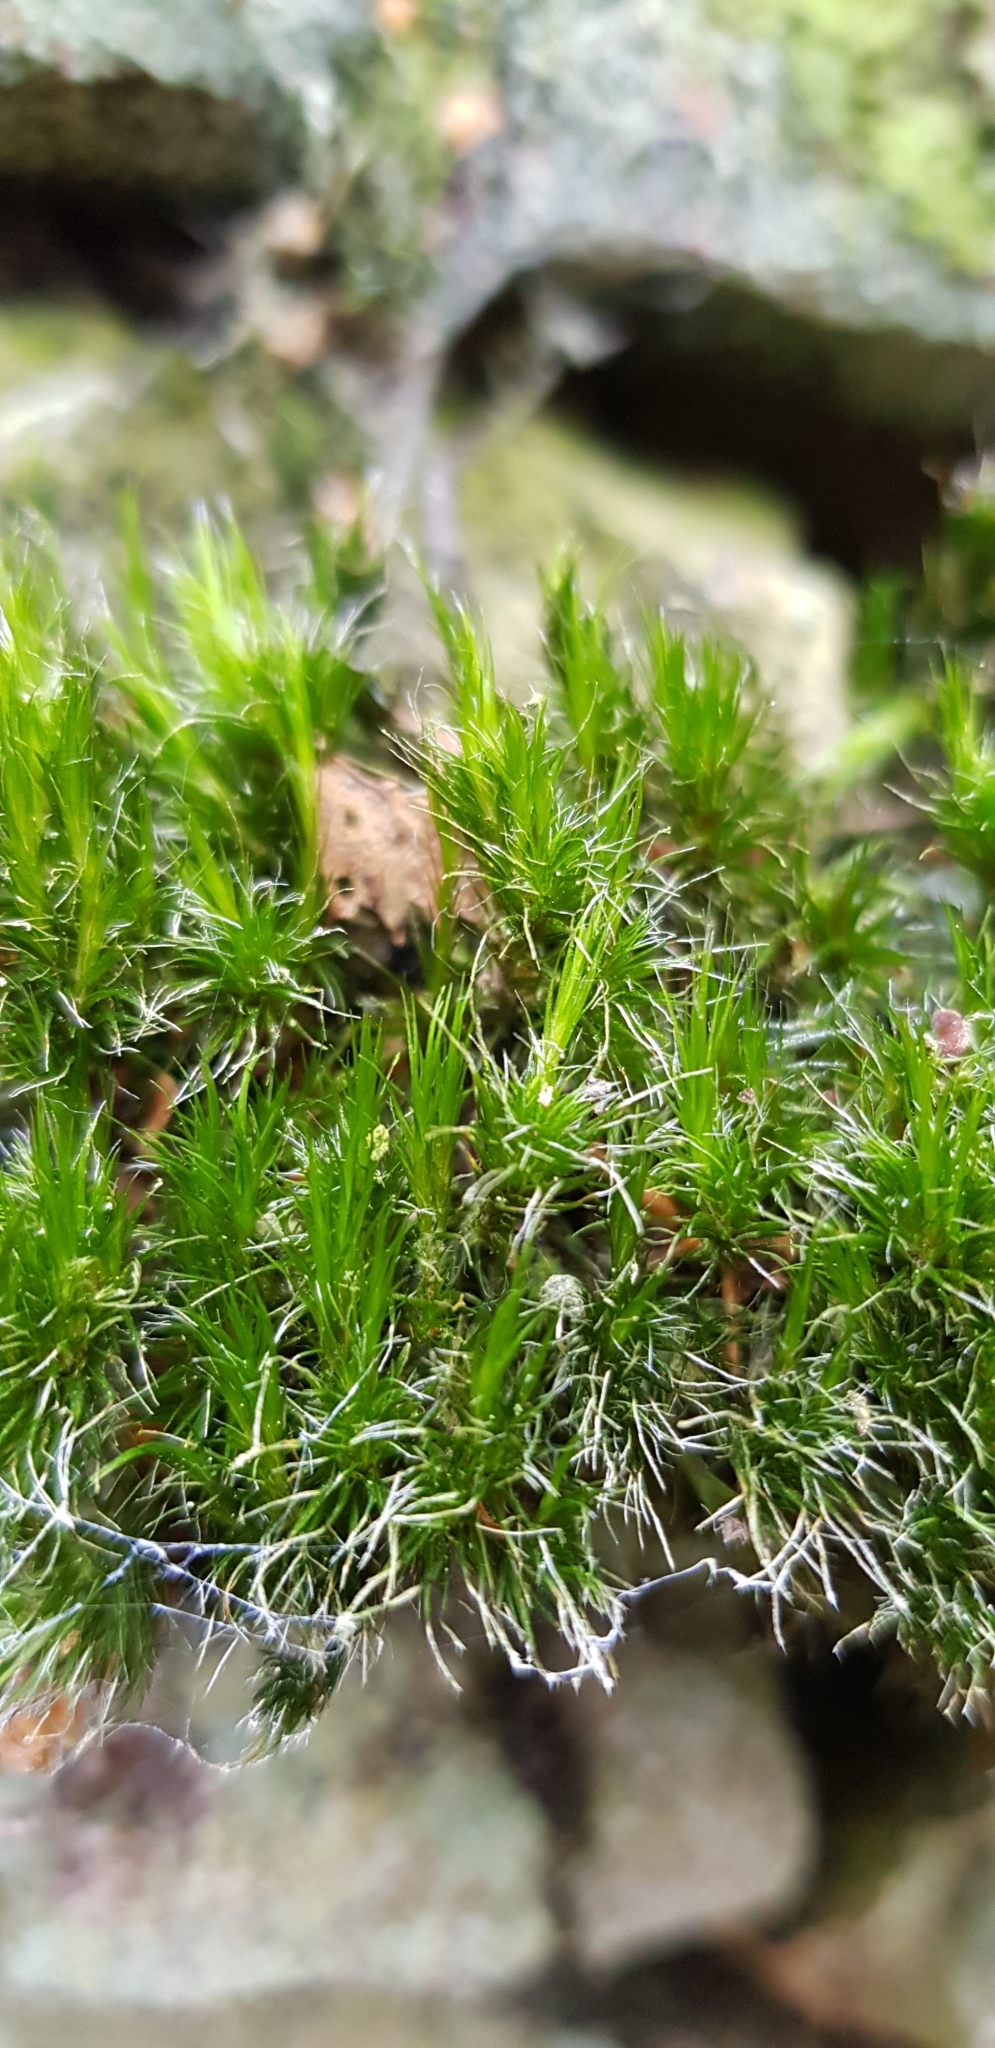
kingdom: Plantae
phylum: Bryophyta
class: Bryopsida
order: Dicranales
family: Leucobryaceae
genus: Campylopus
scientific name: Campylopus introflexus
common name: Heath star moss
